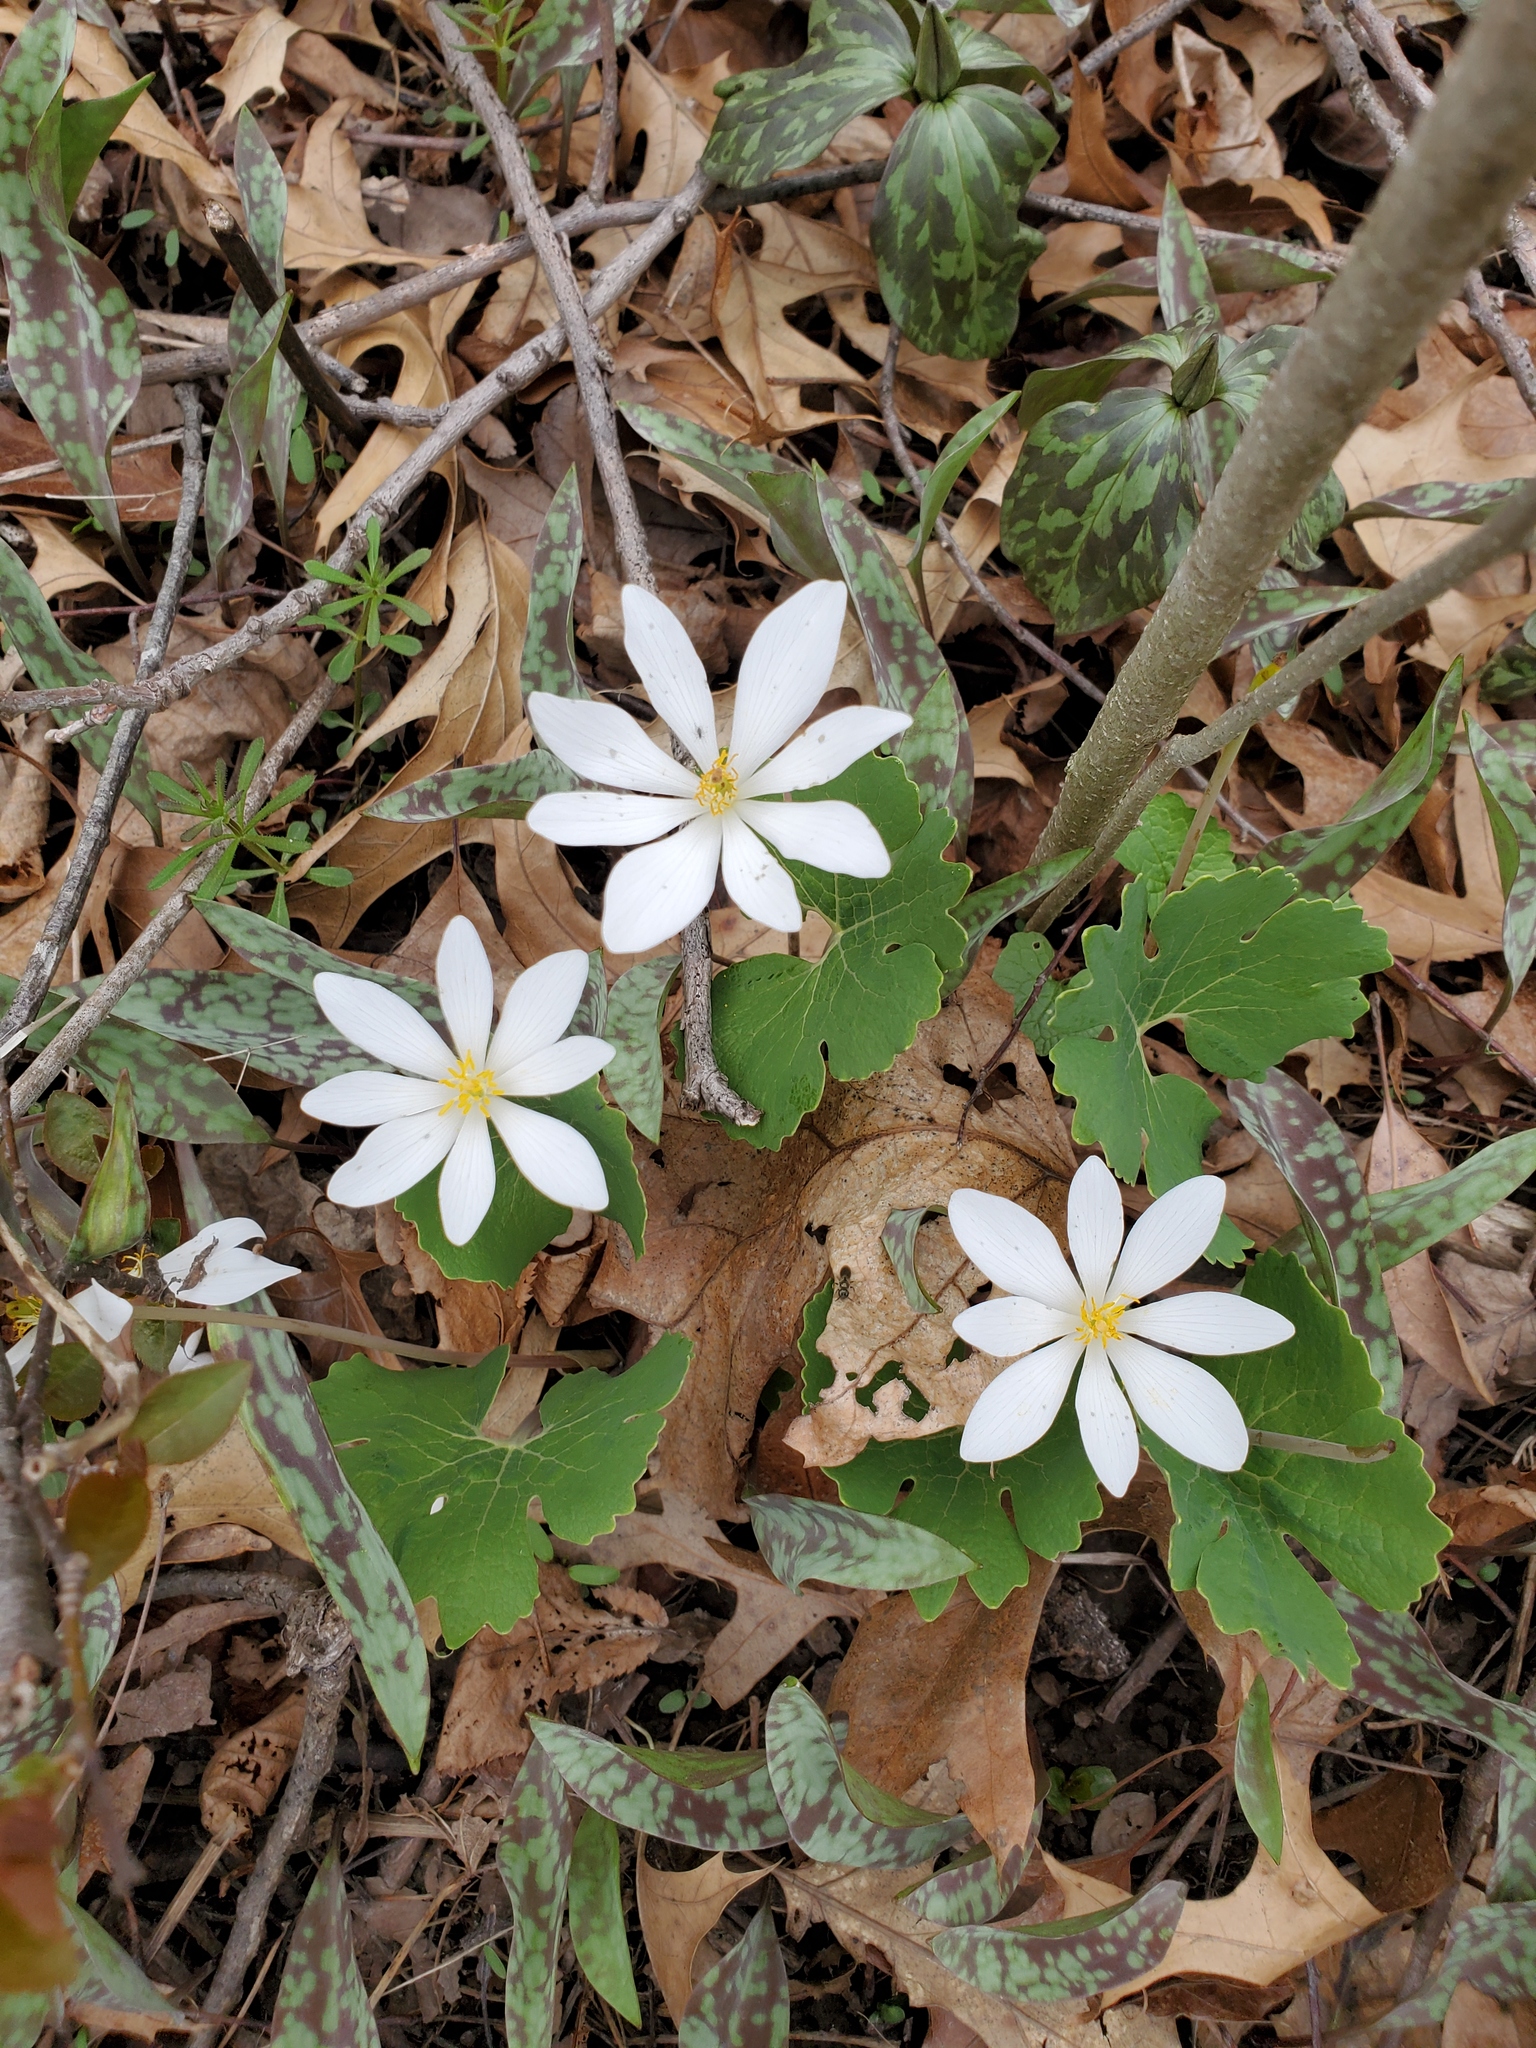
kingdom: Plantae
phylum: Tracheophyta
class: Magnoliopsida
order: Ranunculales
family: Papaveraceae
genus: Sanguinaria
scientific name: Sanguinaria canadensis
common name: Bloodroot
